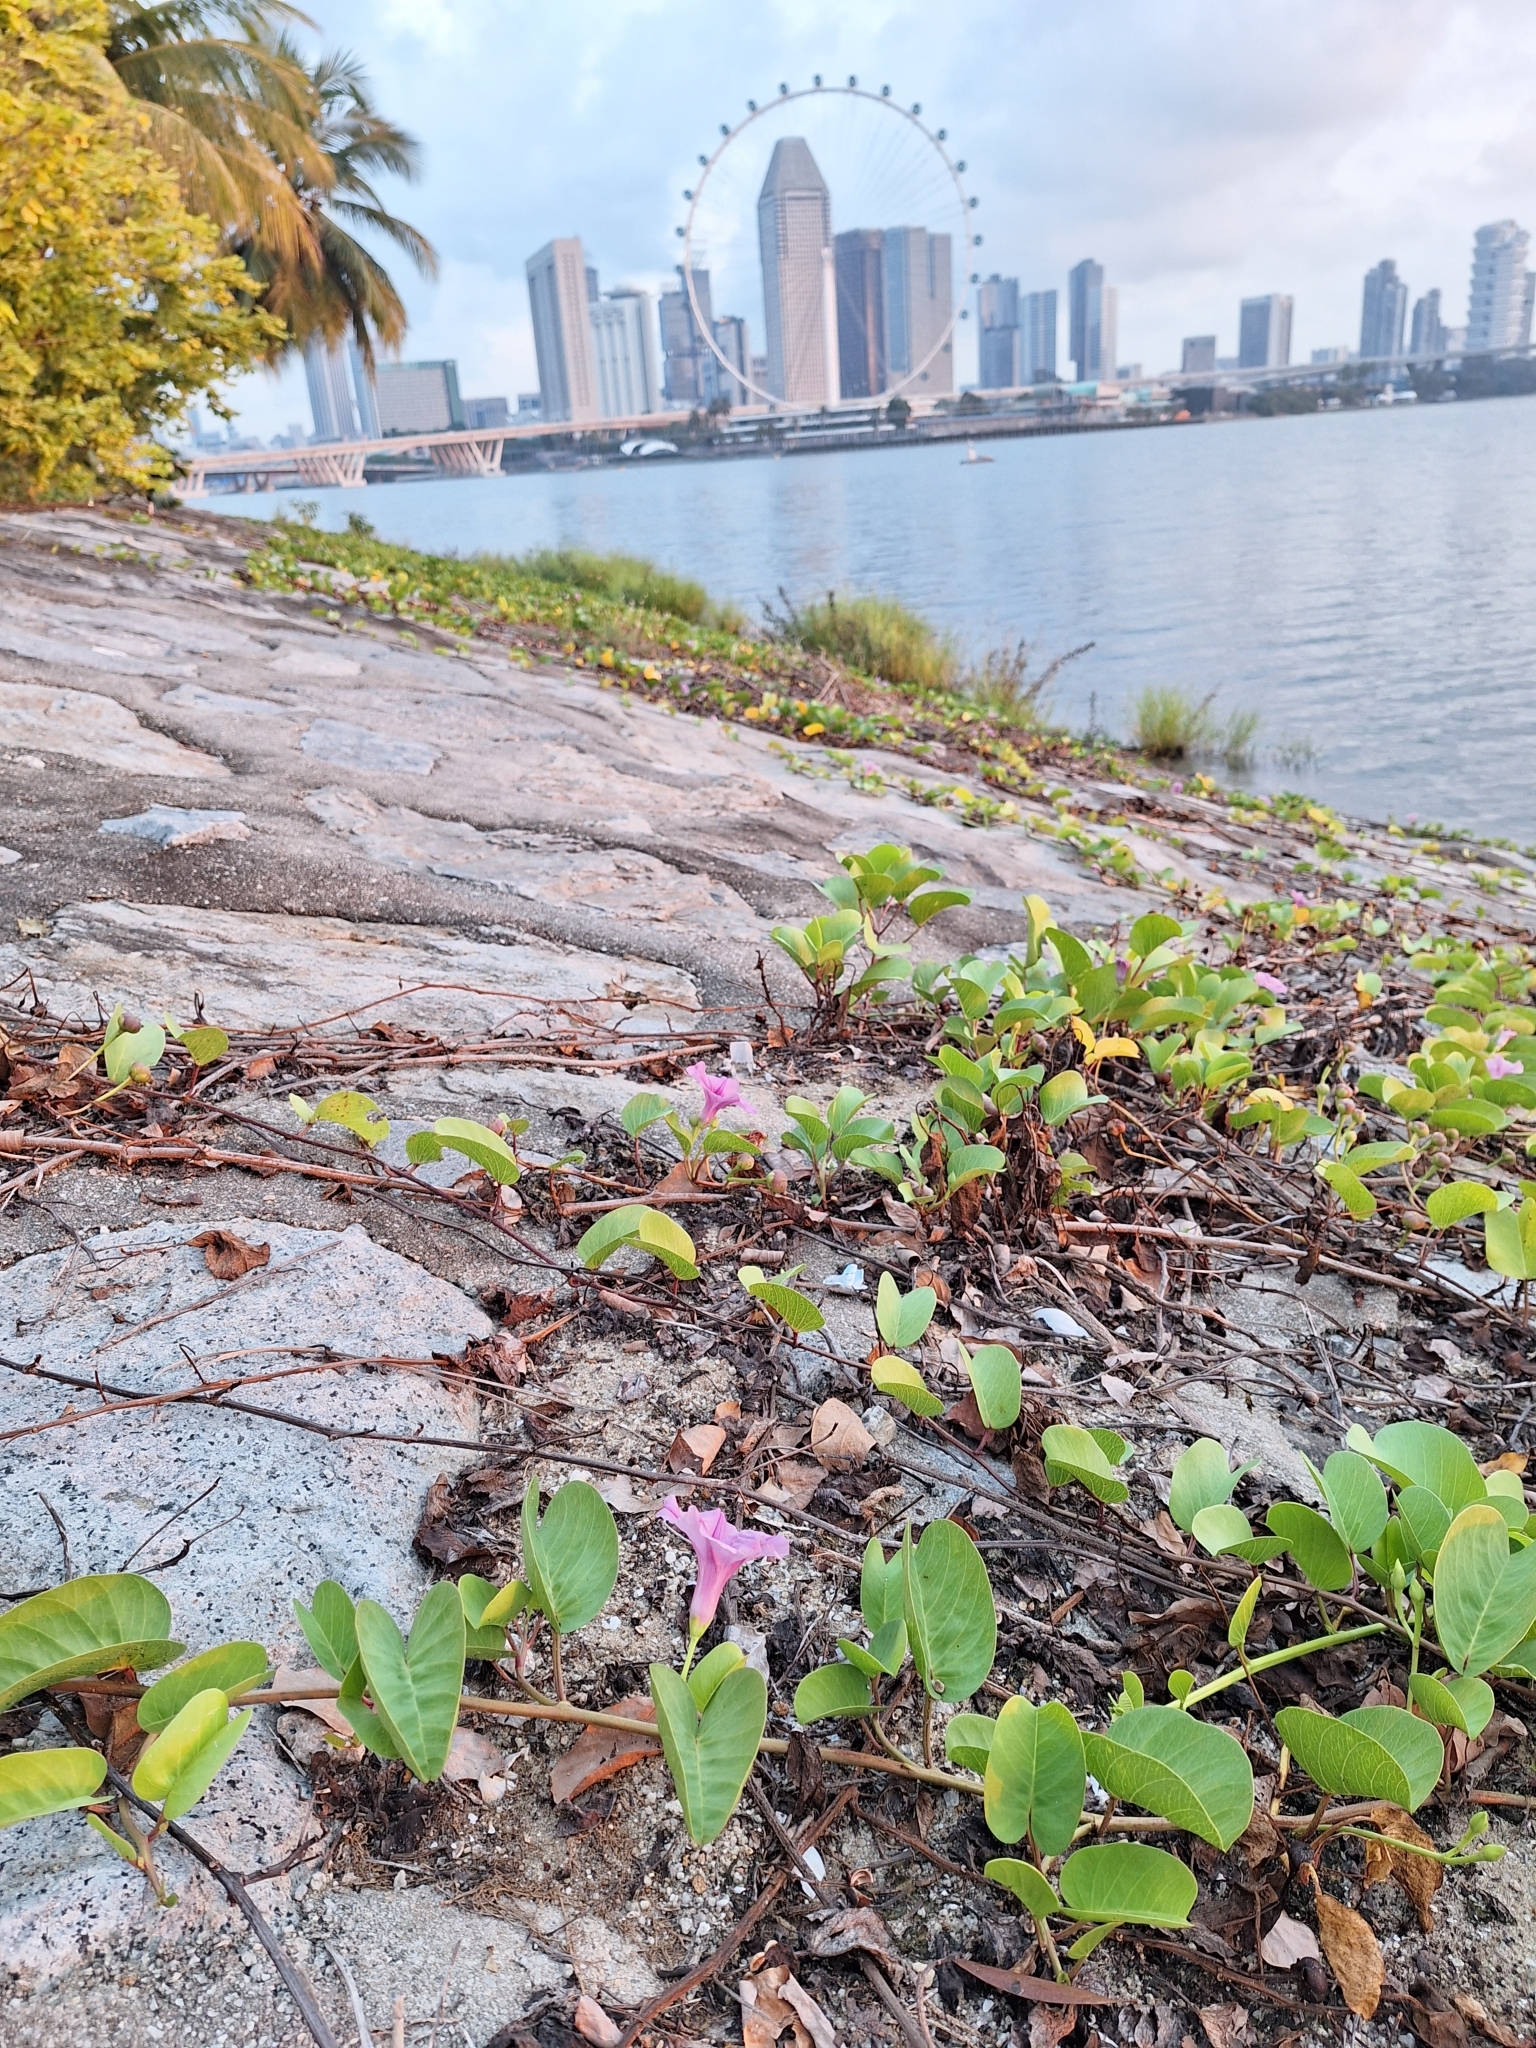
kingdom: Plantae
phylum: Tracheophyta
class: Magnoliopsida
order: Solanales
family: Convolvulaceae
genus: Ipomoea
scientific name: Ipomoea pes-caprae
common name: Beach morning glory
